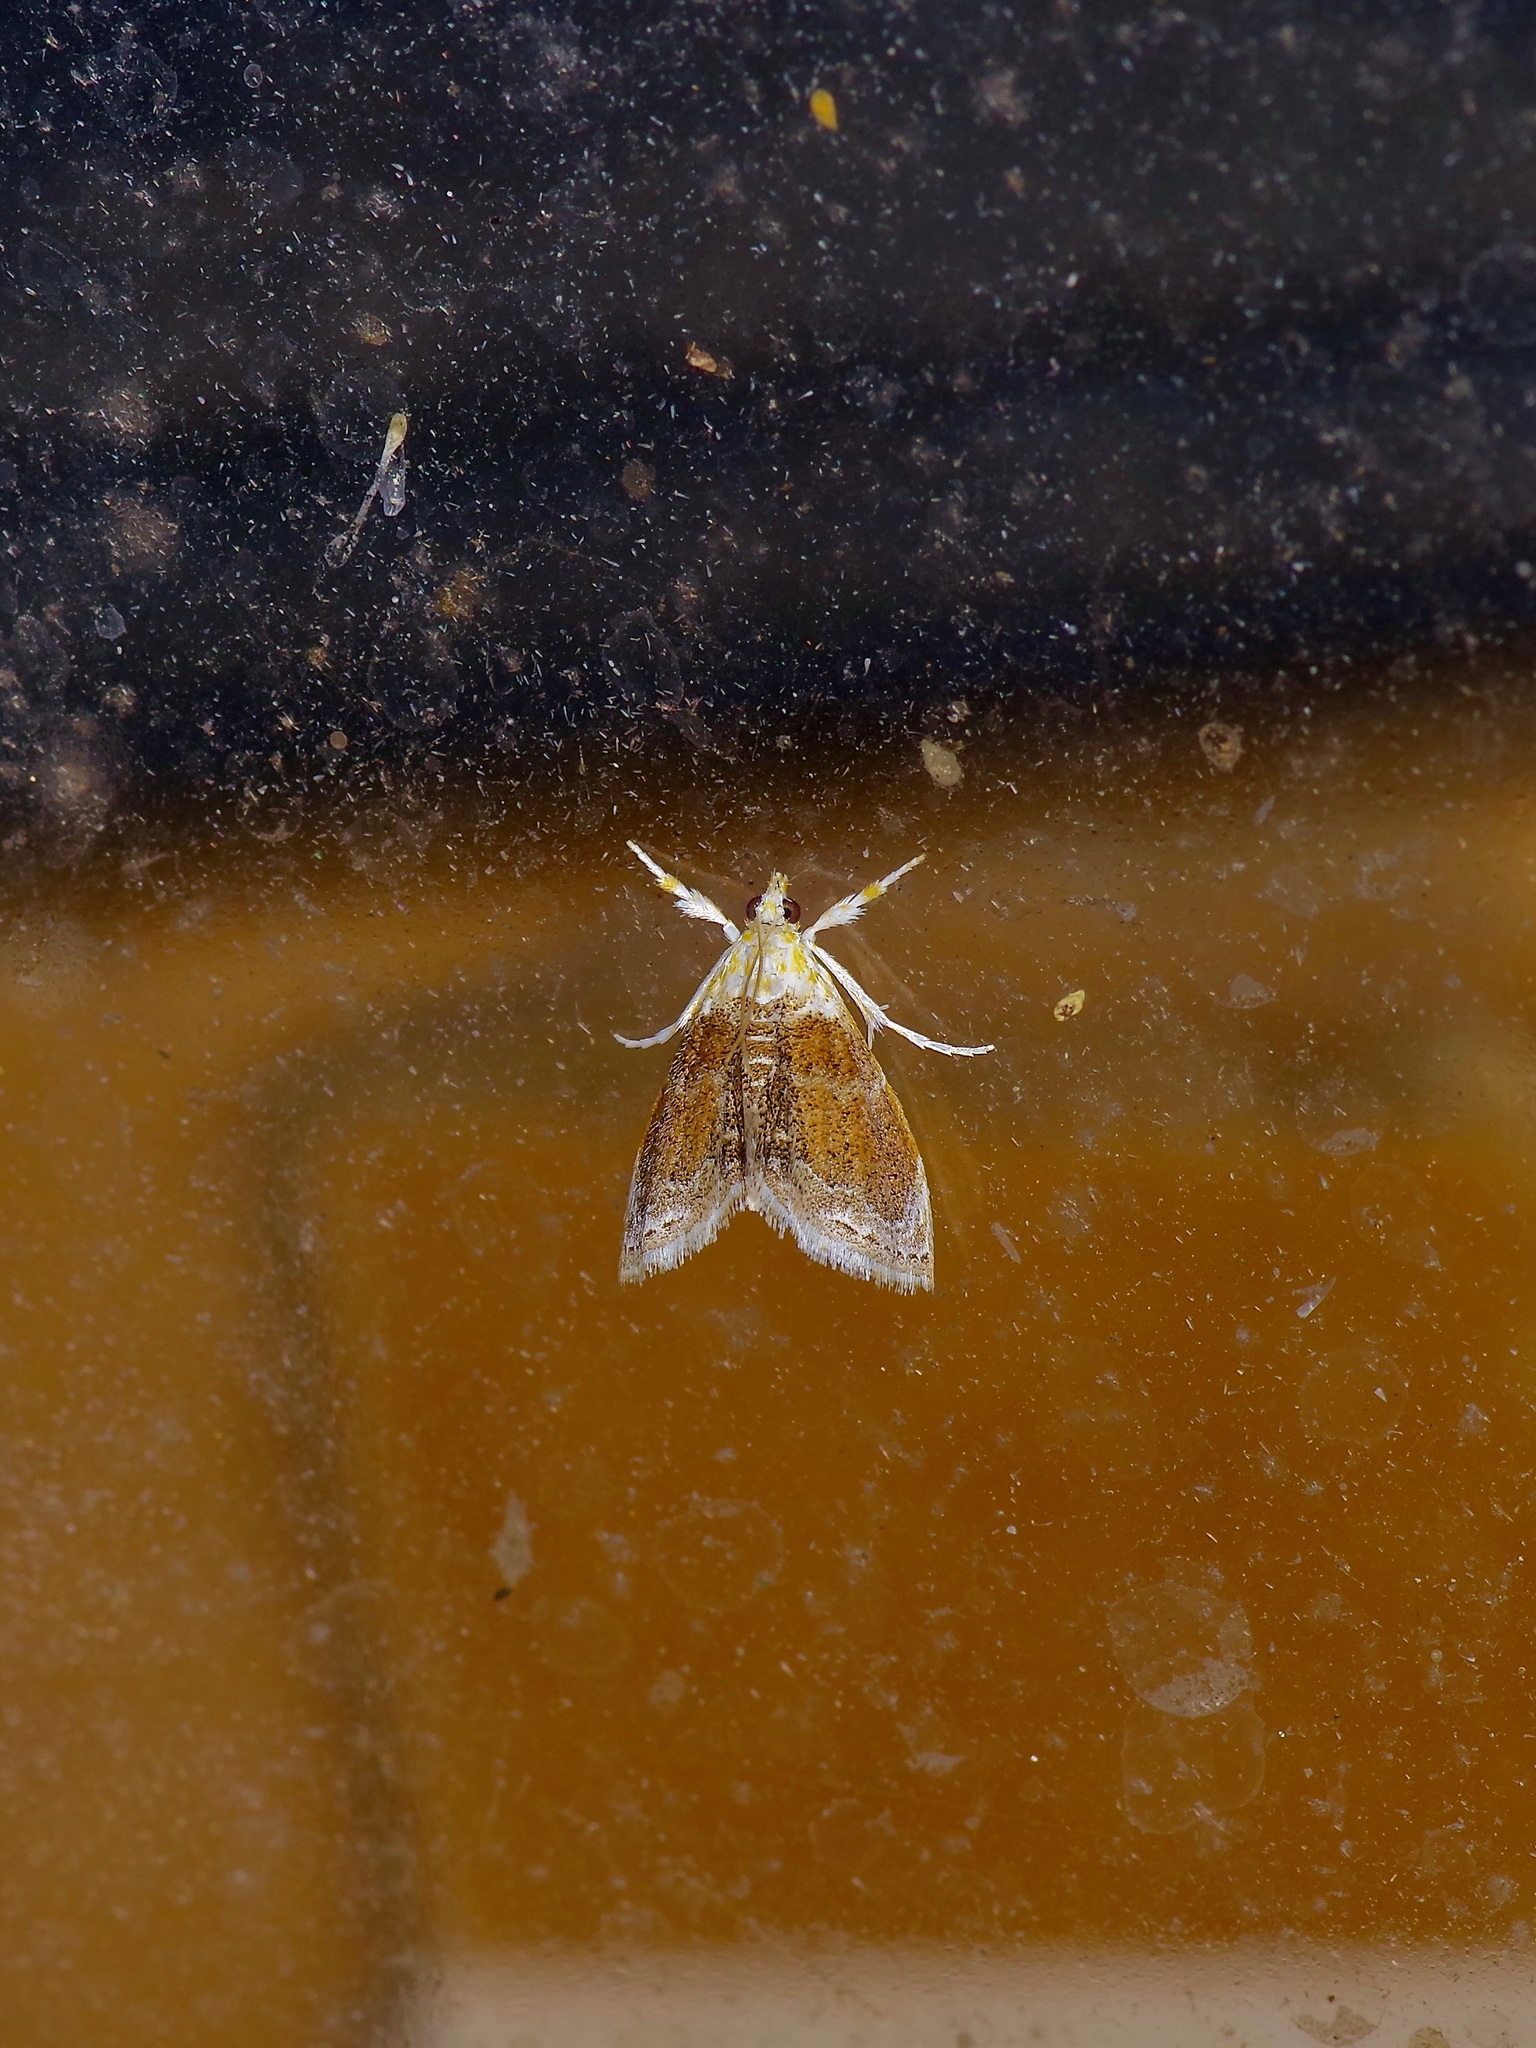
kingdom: Animalia
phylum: Arthropoda
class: Insecta
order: Lepidoptera
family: Crambidae
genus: Lipocosma
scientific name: Lipocosma polingi
